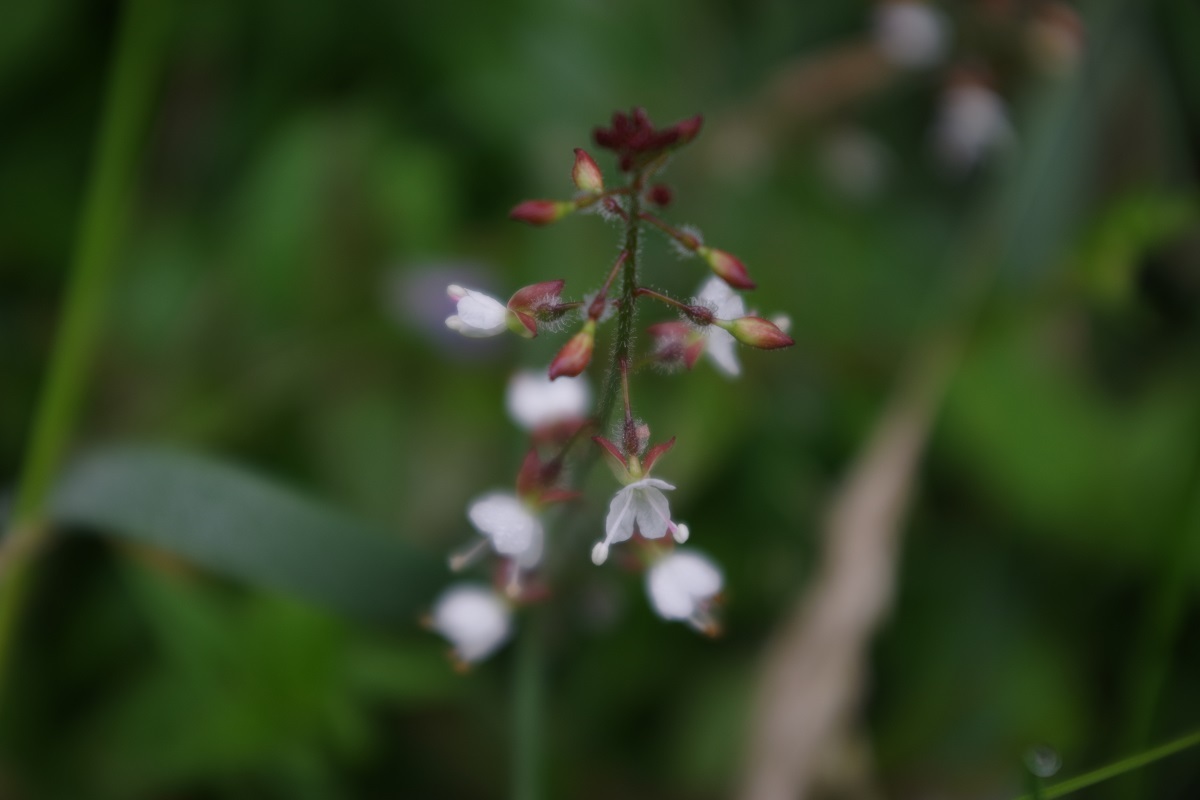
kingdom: Plantae
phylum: Tracheophyta
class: Magnoliopsida
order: Myrtales
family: Onagraceae
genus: Circaea
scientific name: Circaea lutetiana
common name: Enchanter's-nightshade
